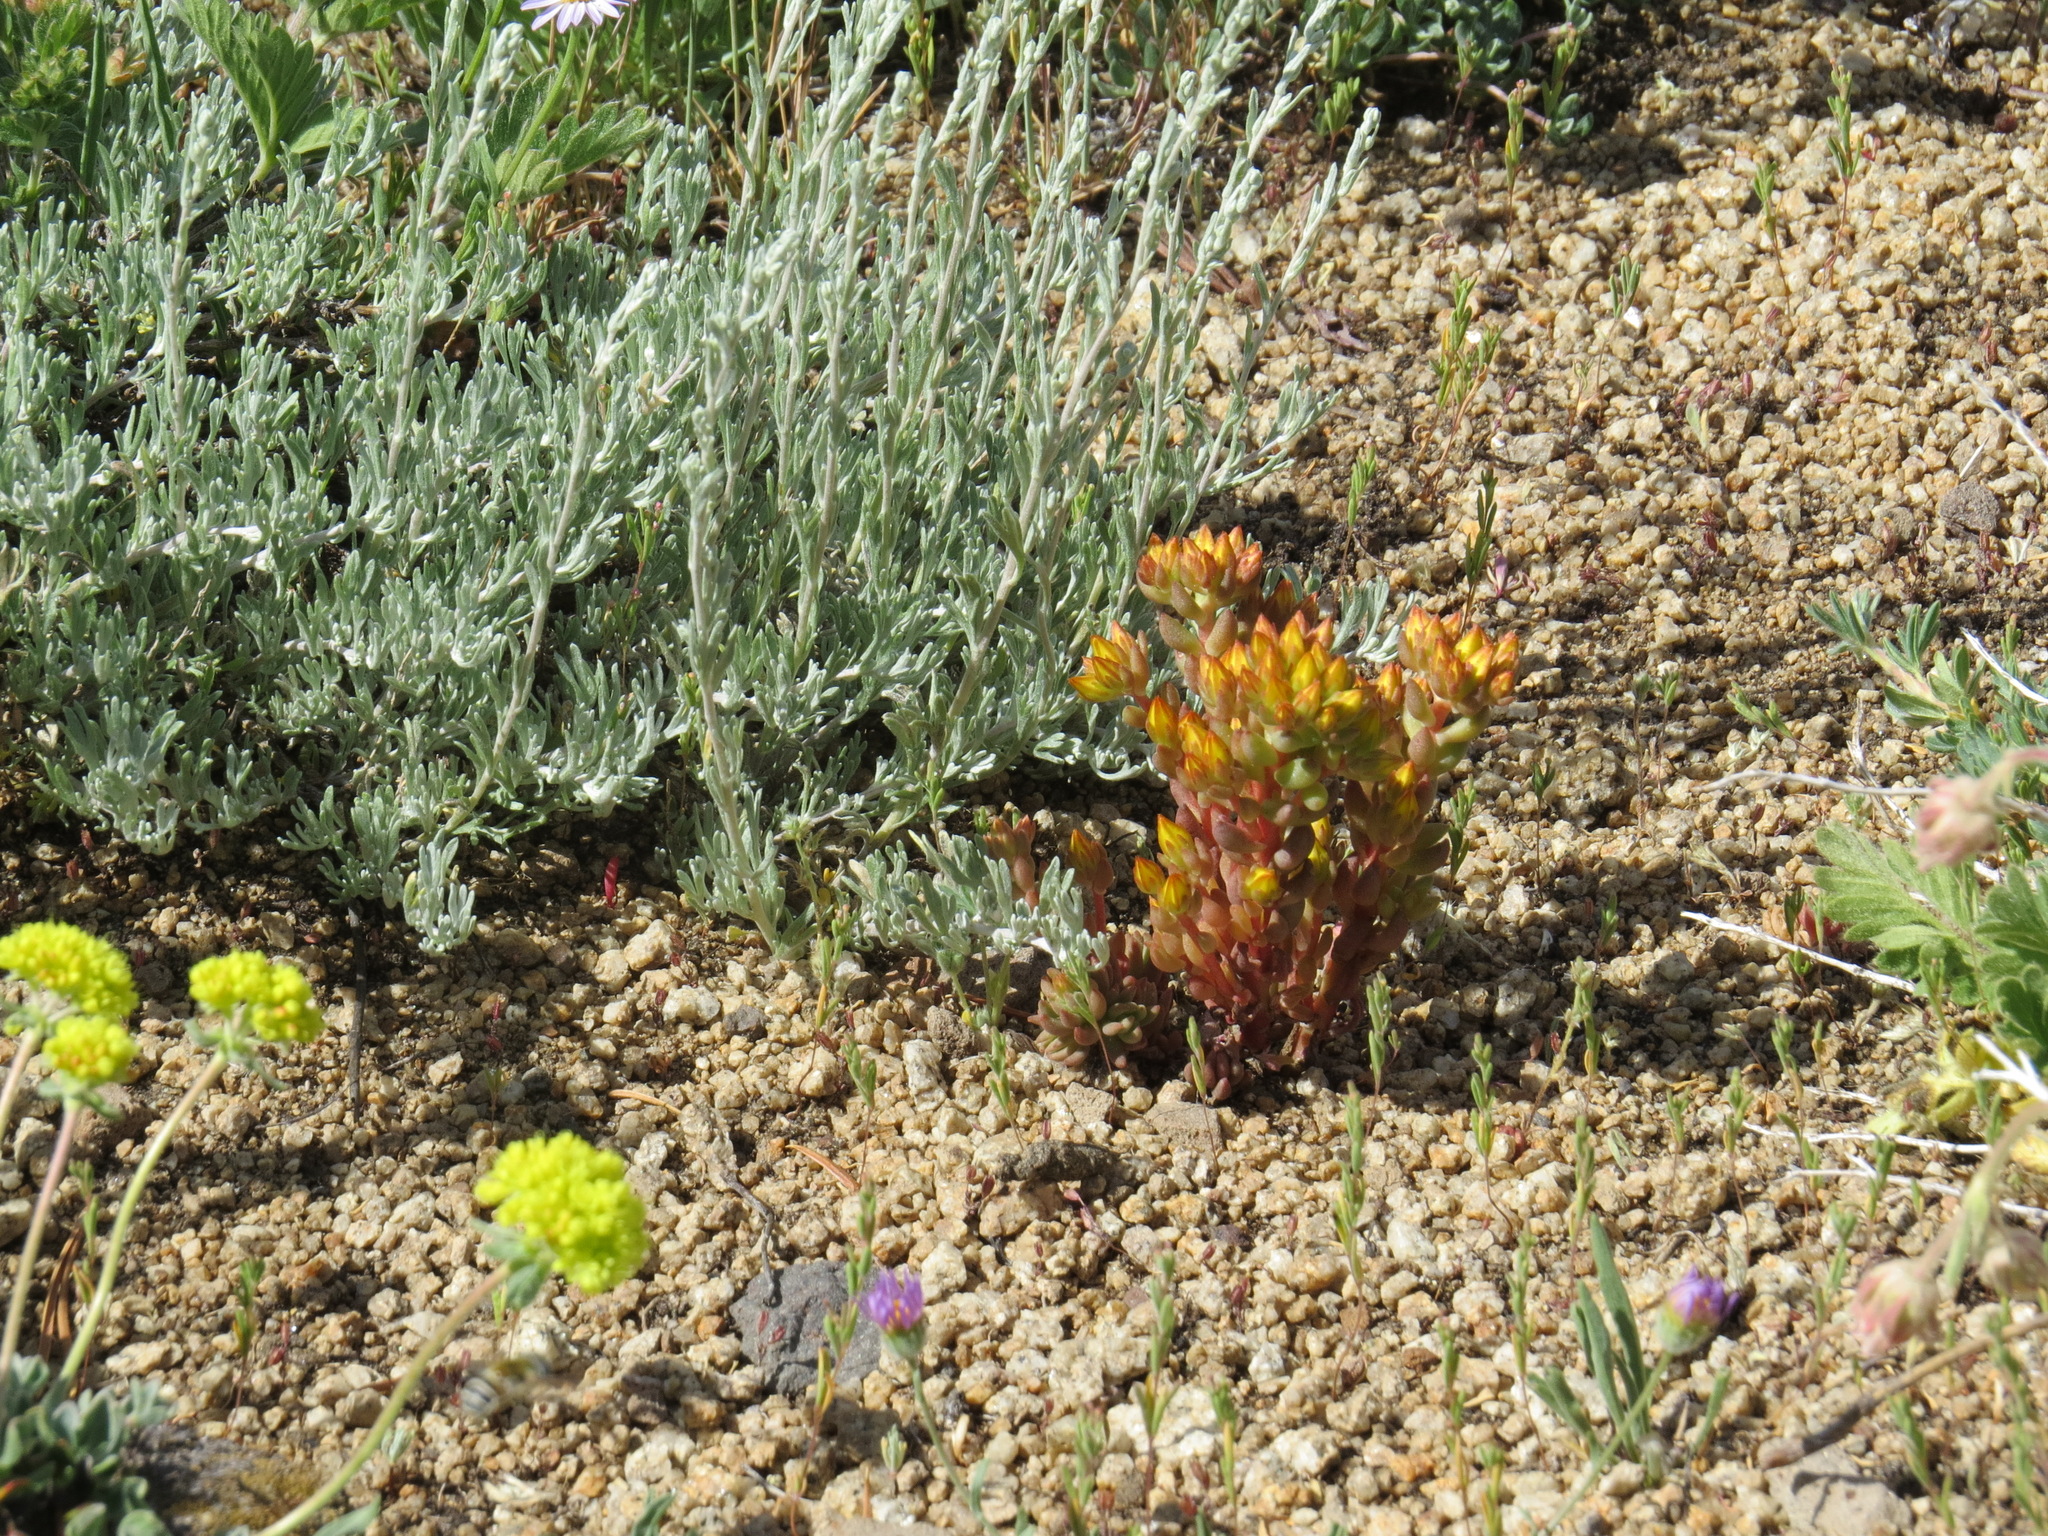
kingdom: Plantae
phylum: Tracheophyta
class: Magnoliopsida
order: Saxifragales
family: Crassulaceae
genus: Sedum
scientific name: Sedum lanceolatum
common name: Common stonecrop
